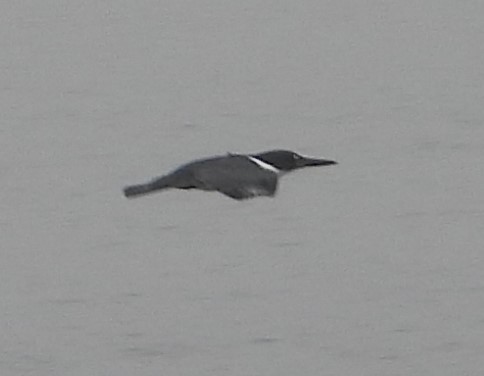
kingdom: Animalia
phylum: Chordata
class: Aves
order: Coraciiformes
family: Alcedinidae
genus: Megaceryle
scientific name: Megaceryle alcyon
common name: Belted kingfisher
